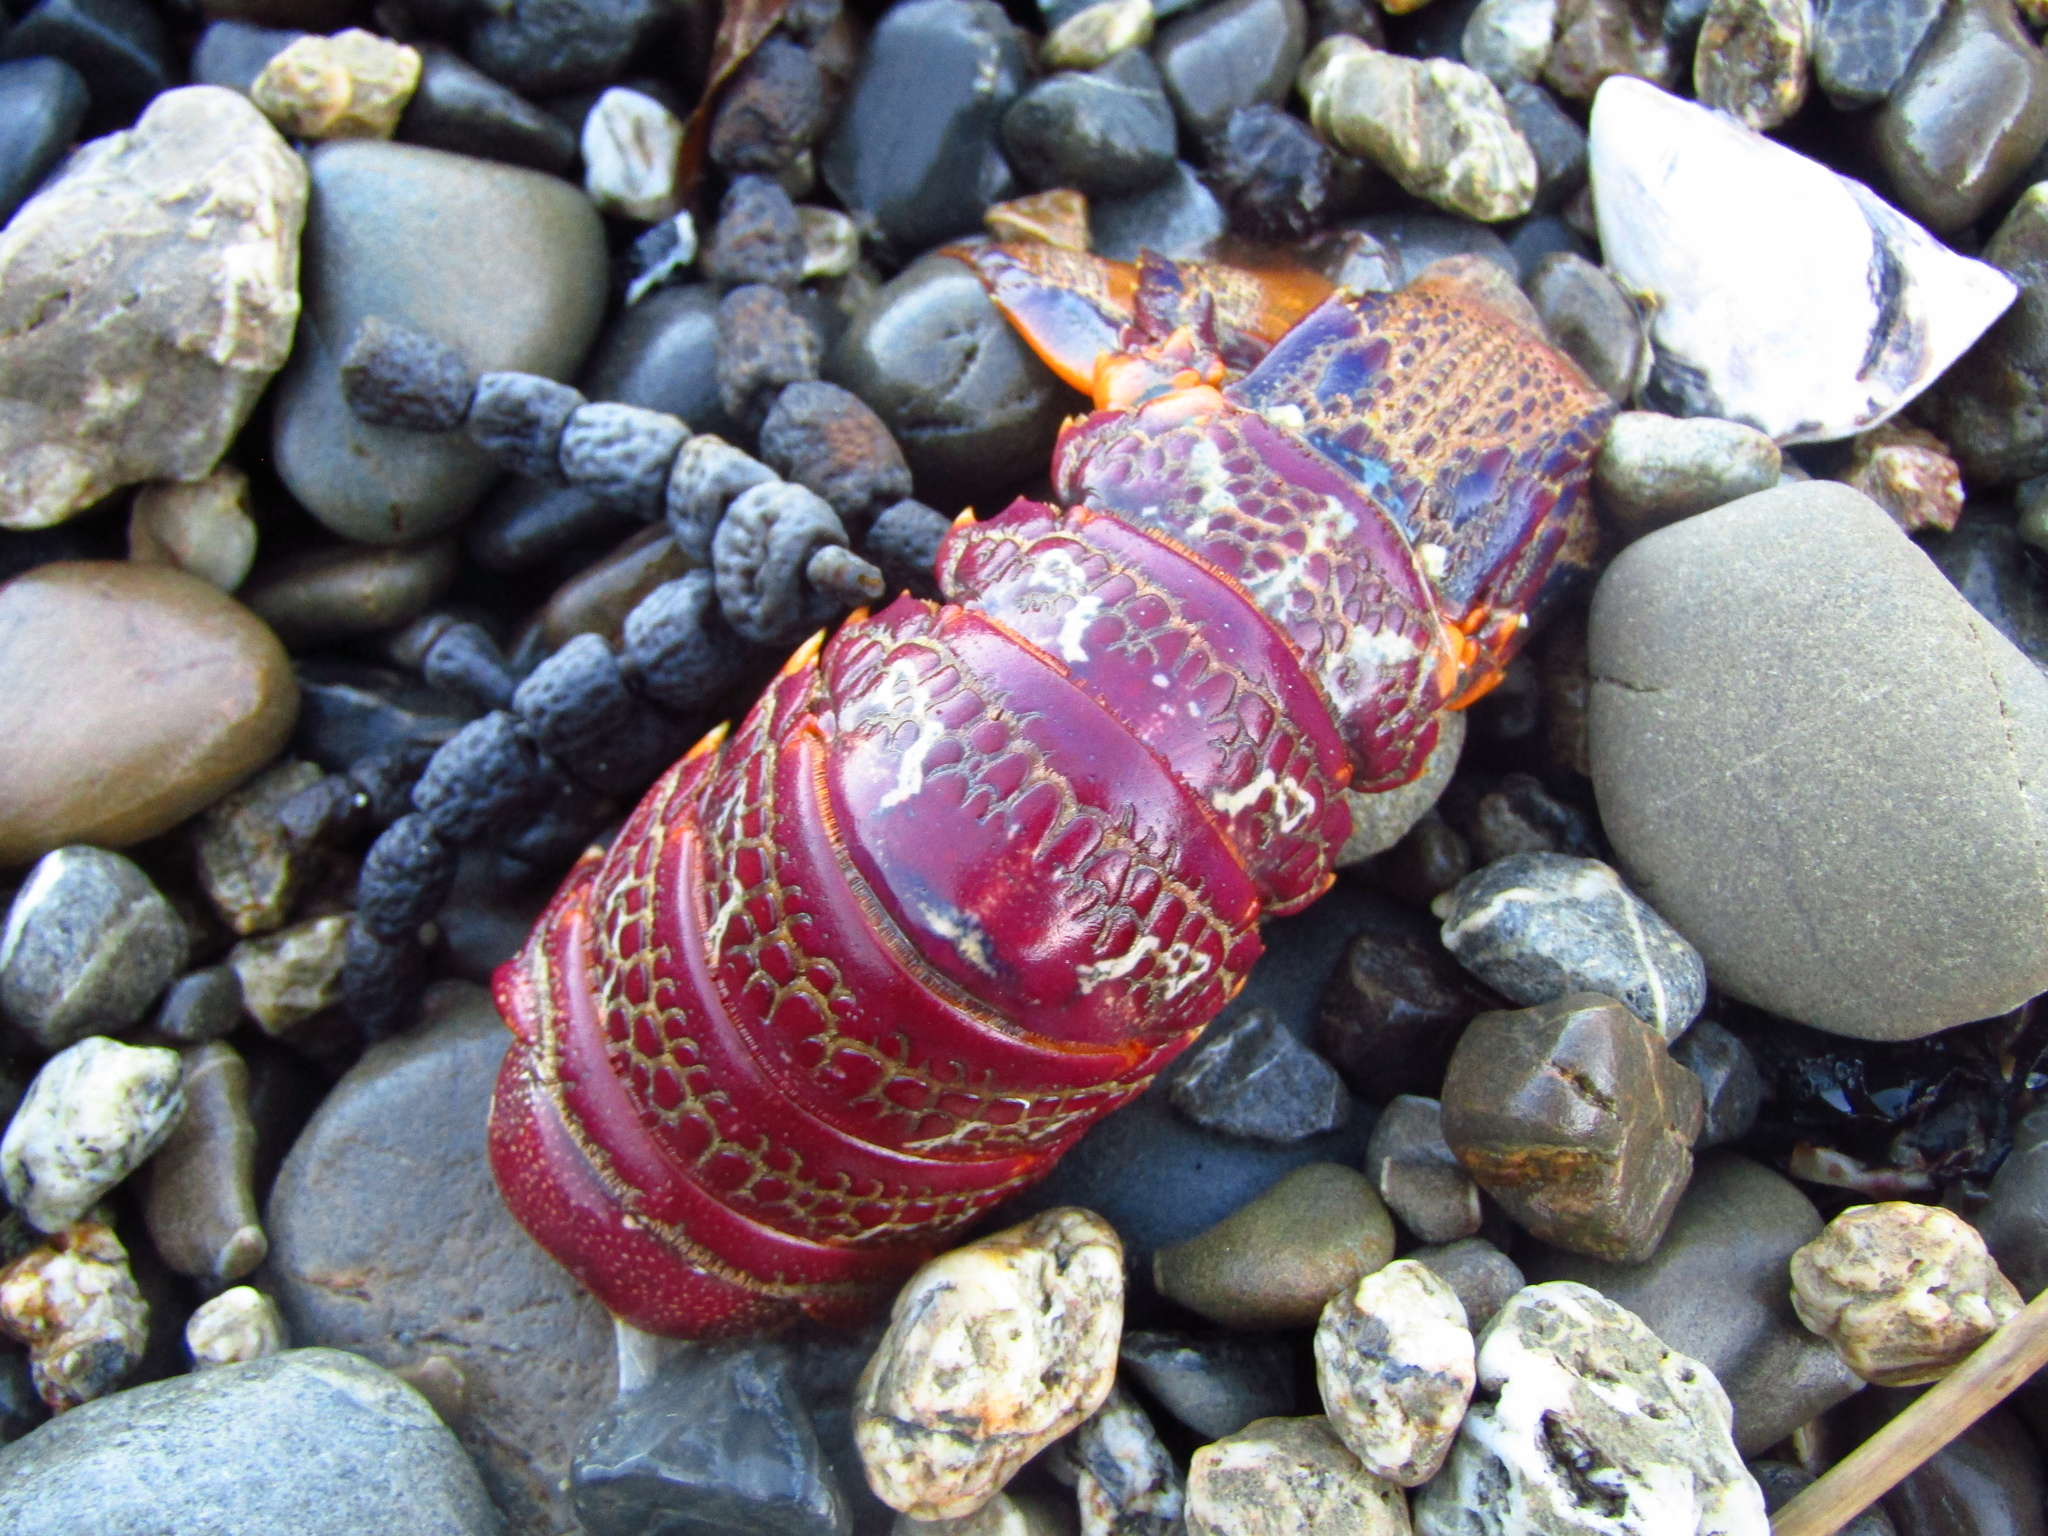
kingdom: Animalia
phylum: Arthropoda
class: Malacostraca
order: Decapoda
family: Palinuridae
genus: Jasus
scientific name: Jasus edwardsii
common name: Red rock lobster
